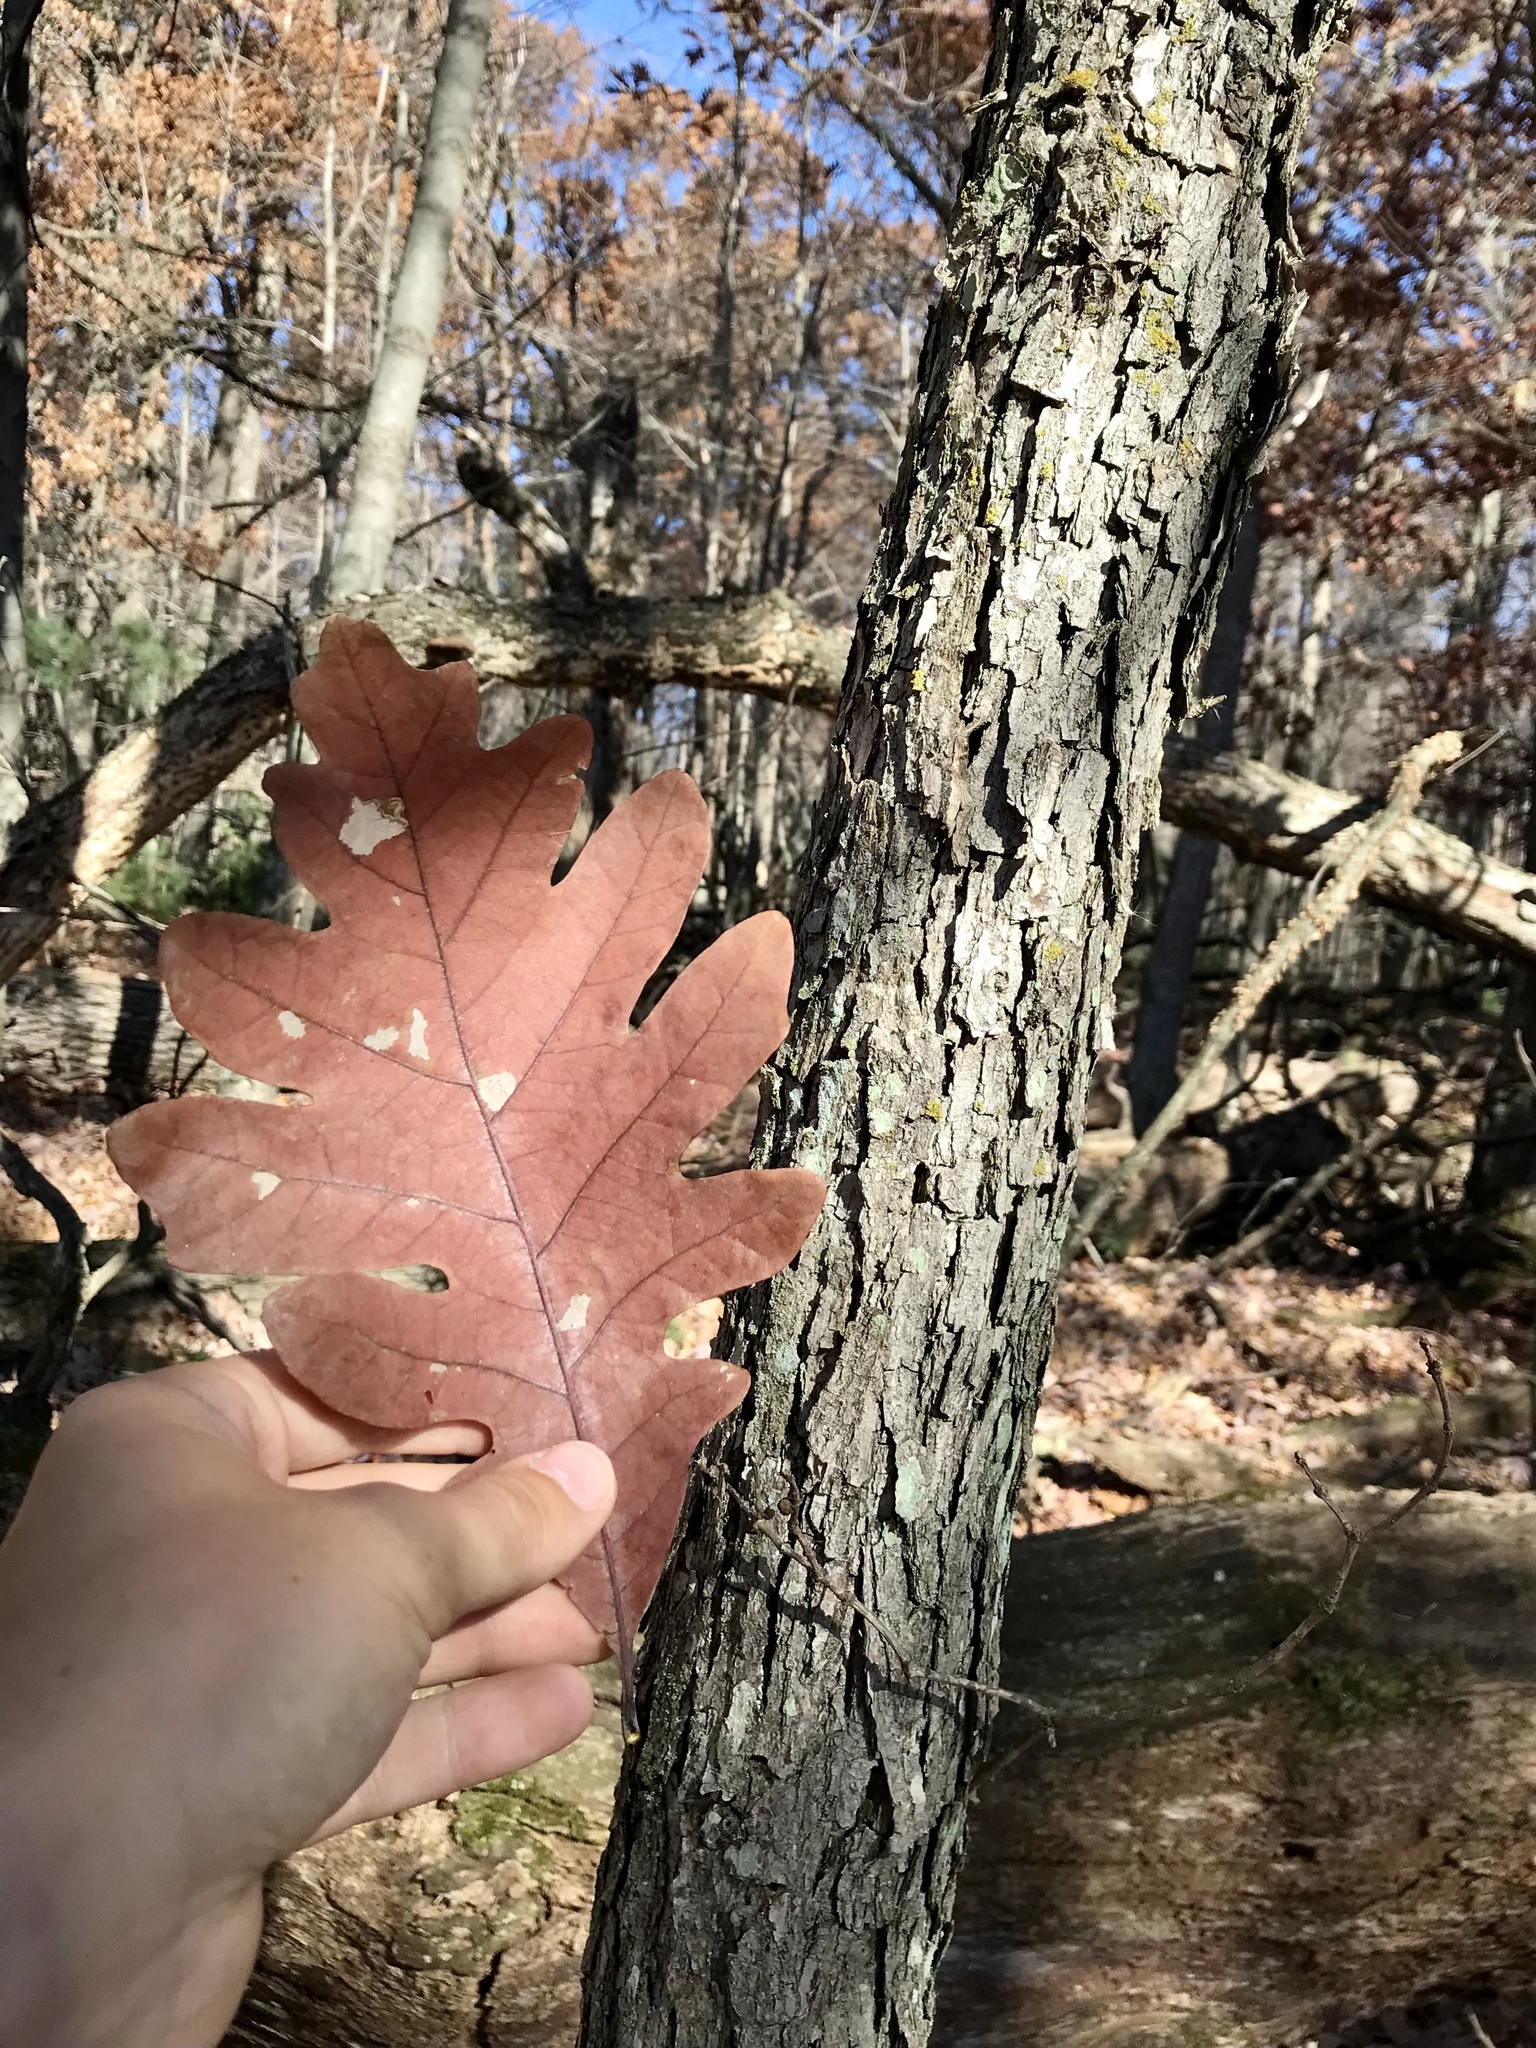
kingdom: Plantae
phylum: Tracheophyta
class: Magnoliopsida
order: Fagales
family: Fagaceae
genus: Quercus
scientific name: Quercus alba
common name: White oak
